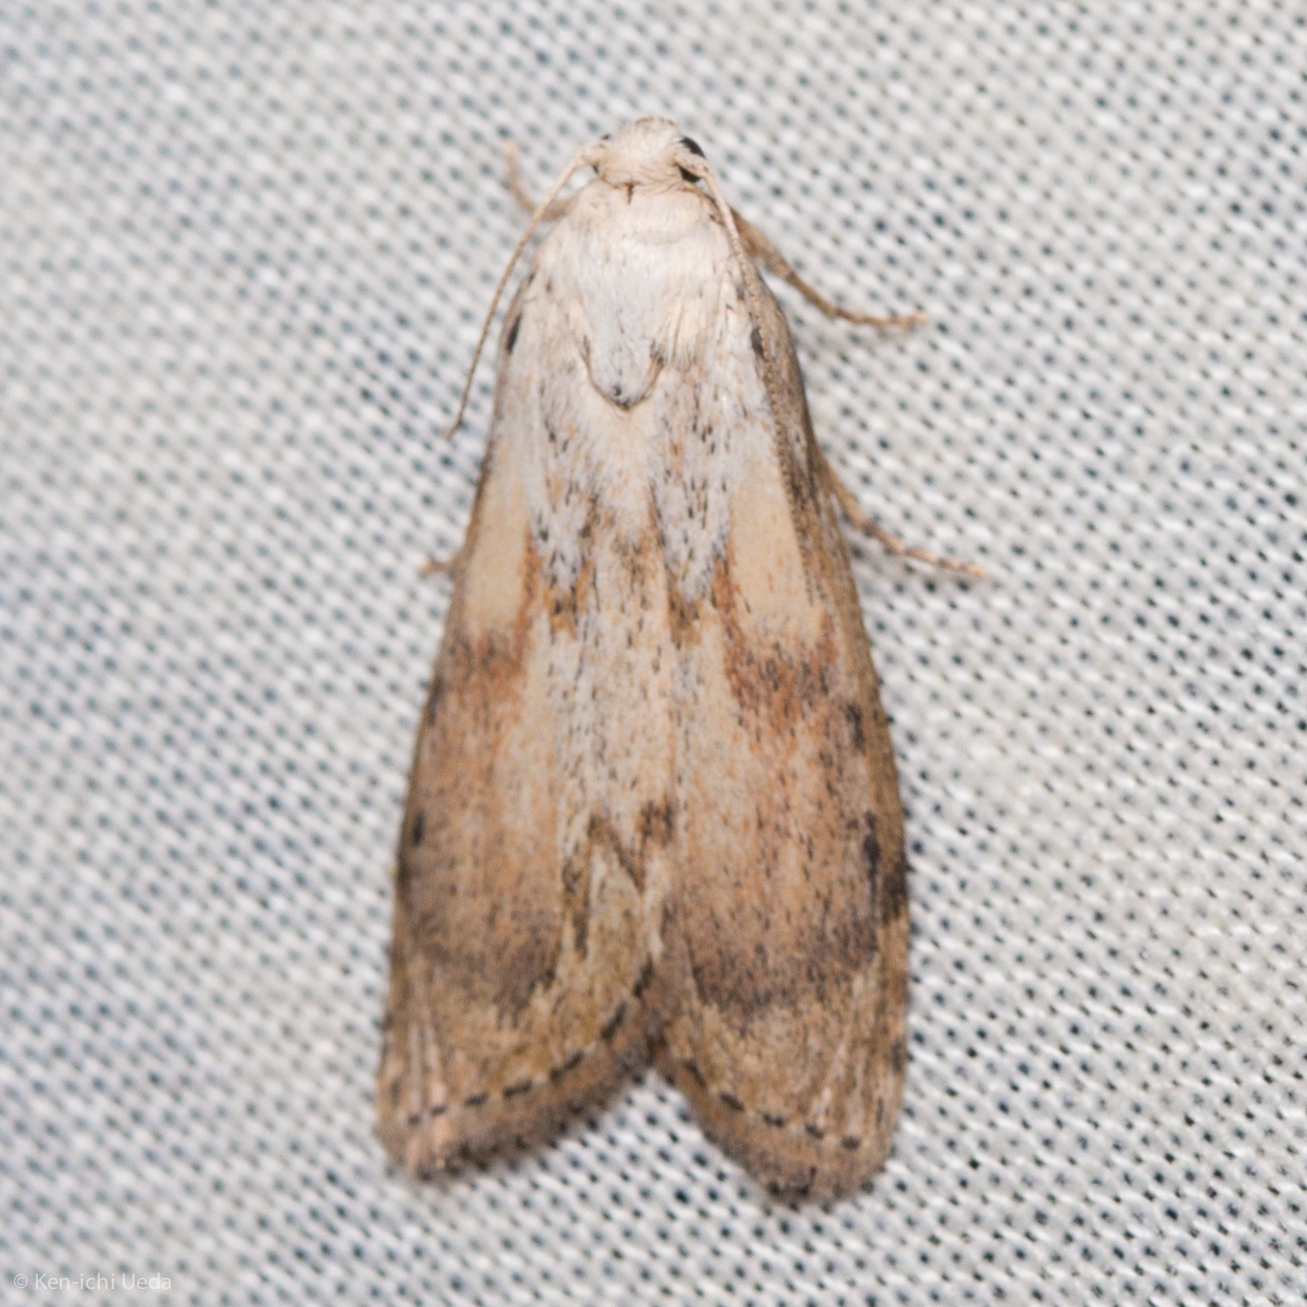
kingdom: Animalia
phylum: Arthropoda
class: Insecta
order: Lepidoptera
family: Pyralidae
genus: Aphomia
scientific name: Aphomia sociella
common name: Bee moth
